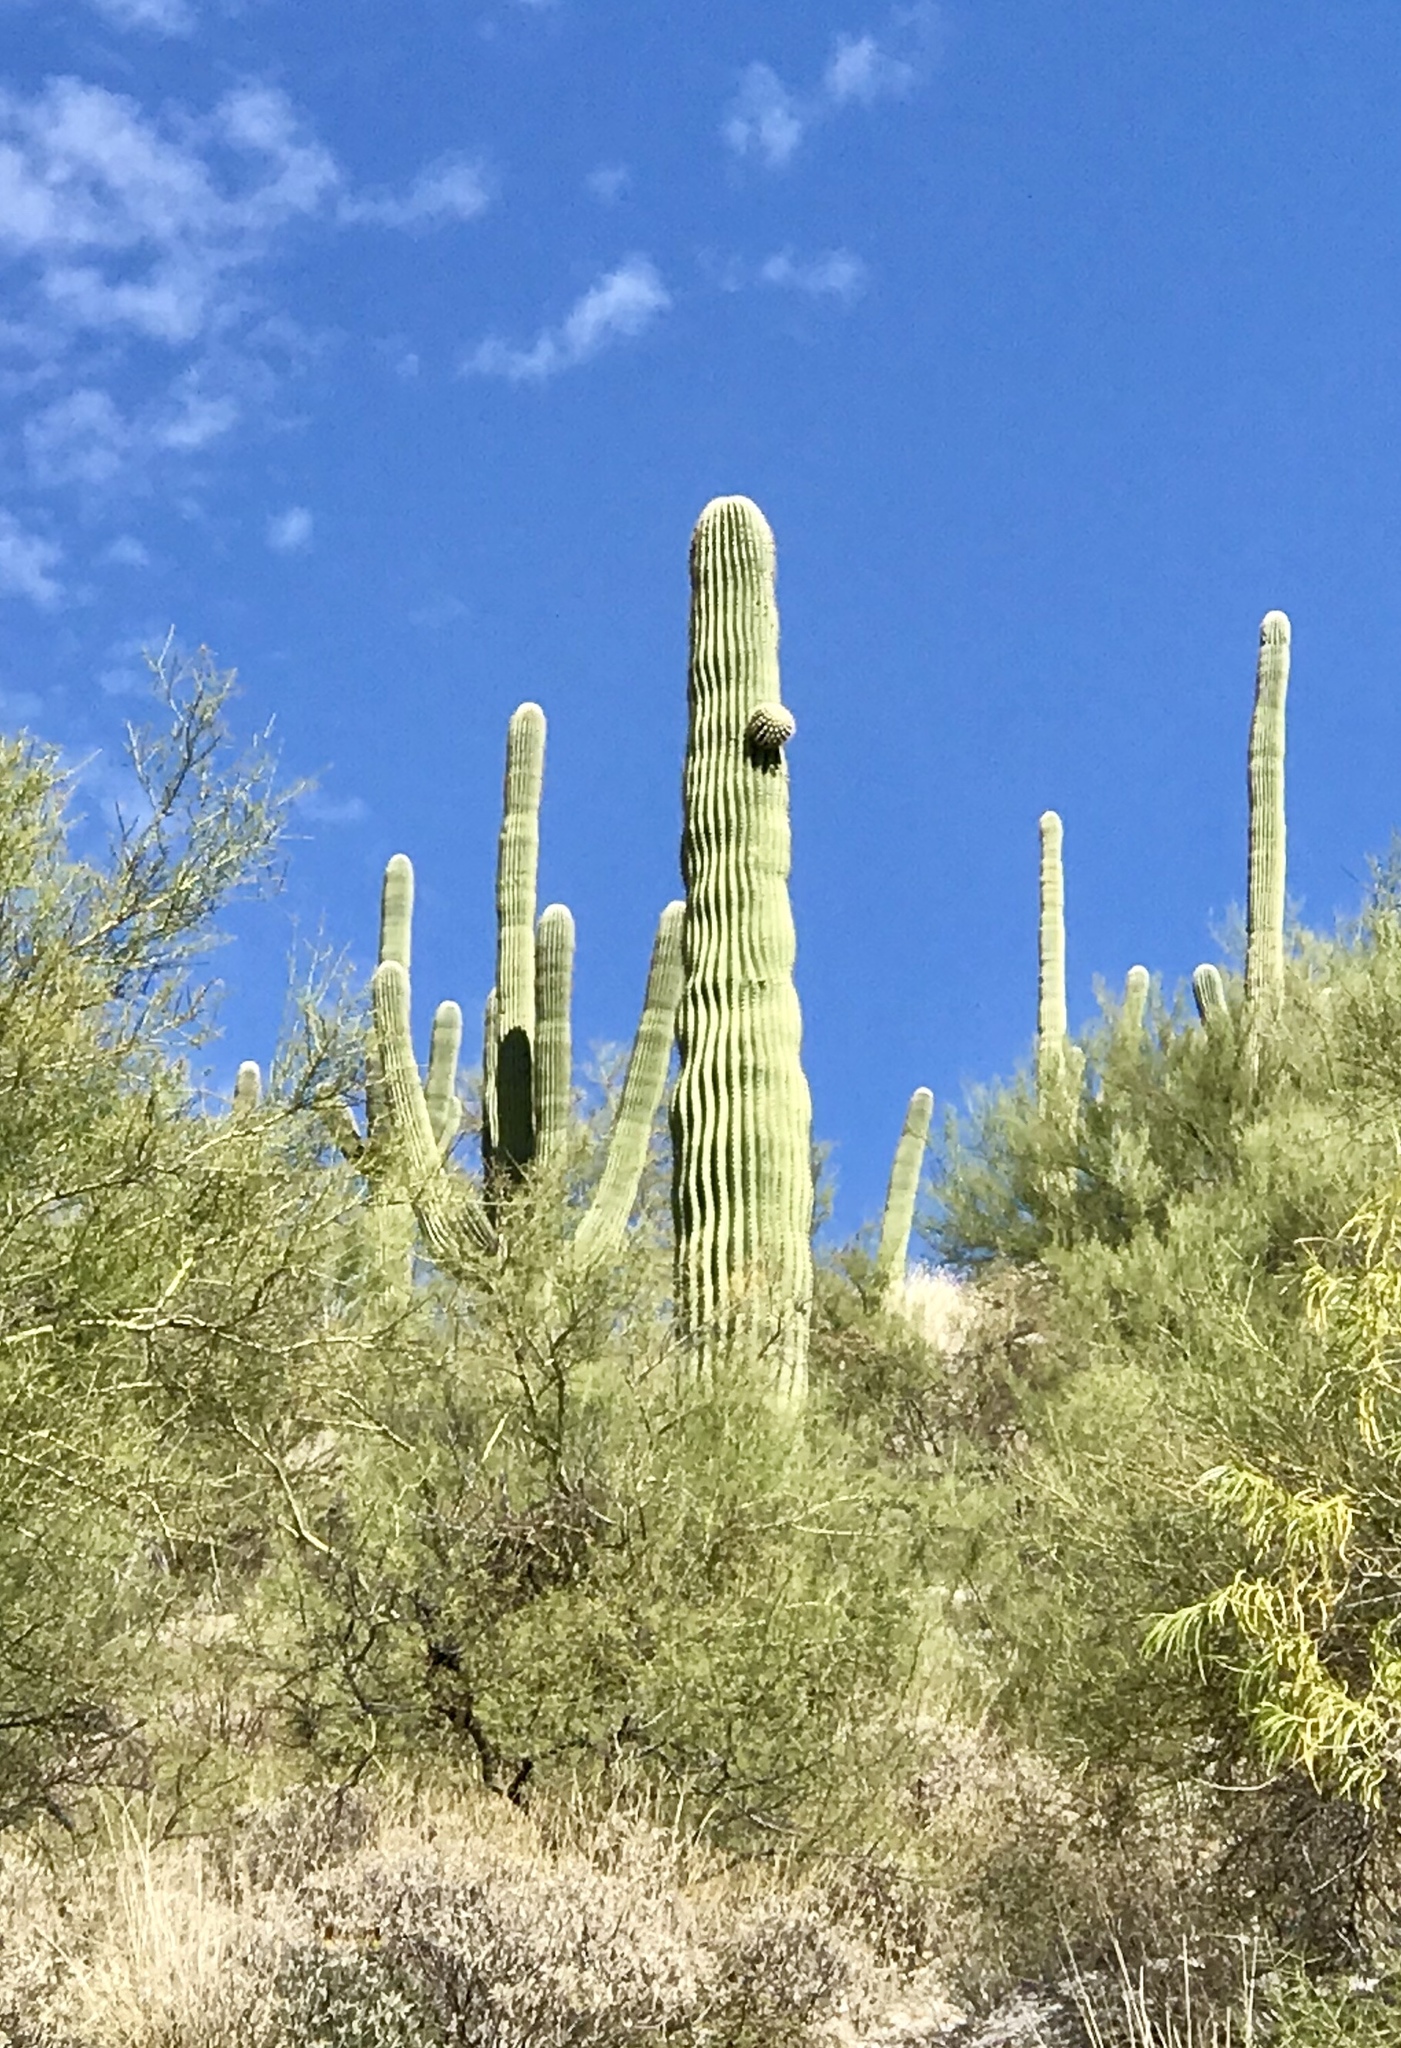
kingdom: Plantae
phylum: Tracheophyta
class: Magnoliopsida
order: Caryophyllales
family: Cactaceae
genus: Carnegiea
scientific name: Carnegiea gigantea
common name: Saguaro
